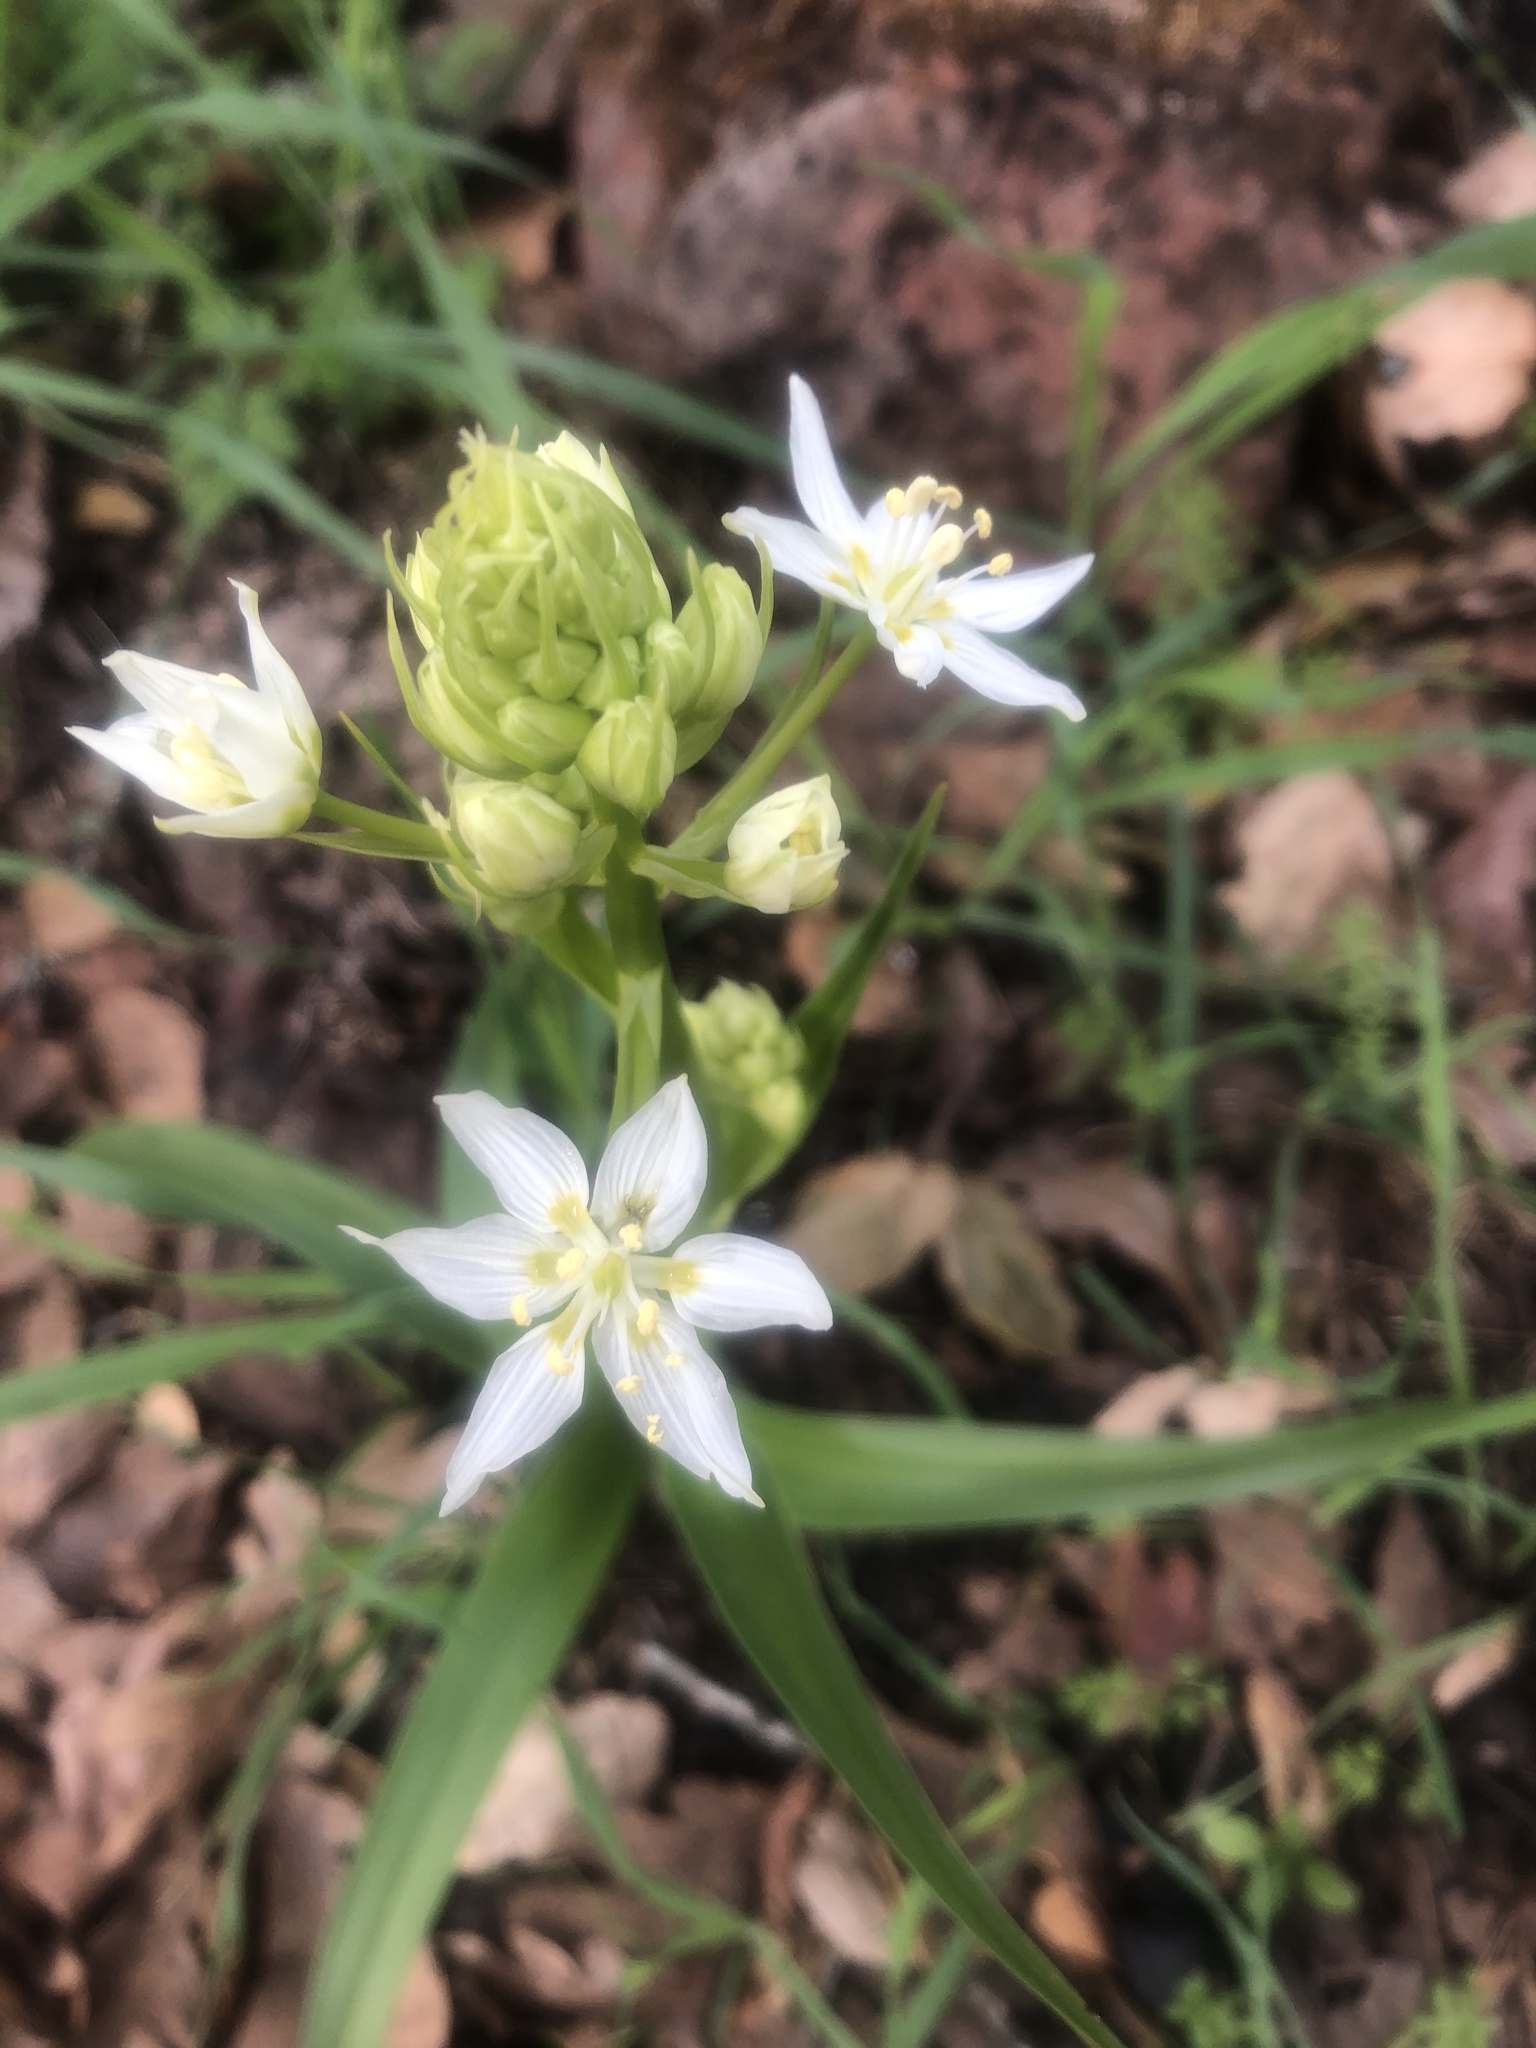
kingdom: Plantae
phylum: Tracheophyta
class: Liliopsida
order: Liliales
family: Melanthiaceae
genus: Toxicoscordion
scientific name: Toxicoscordion fremontii
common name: Fremont's death camas
